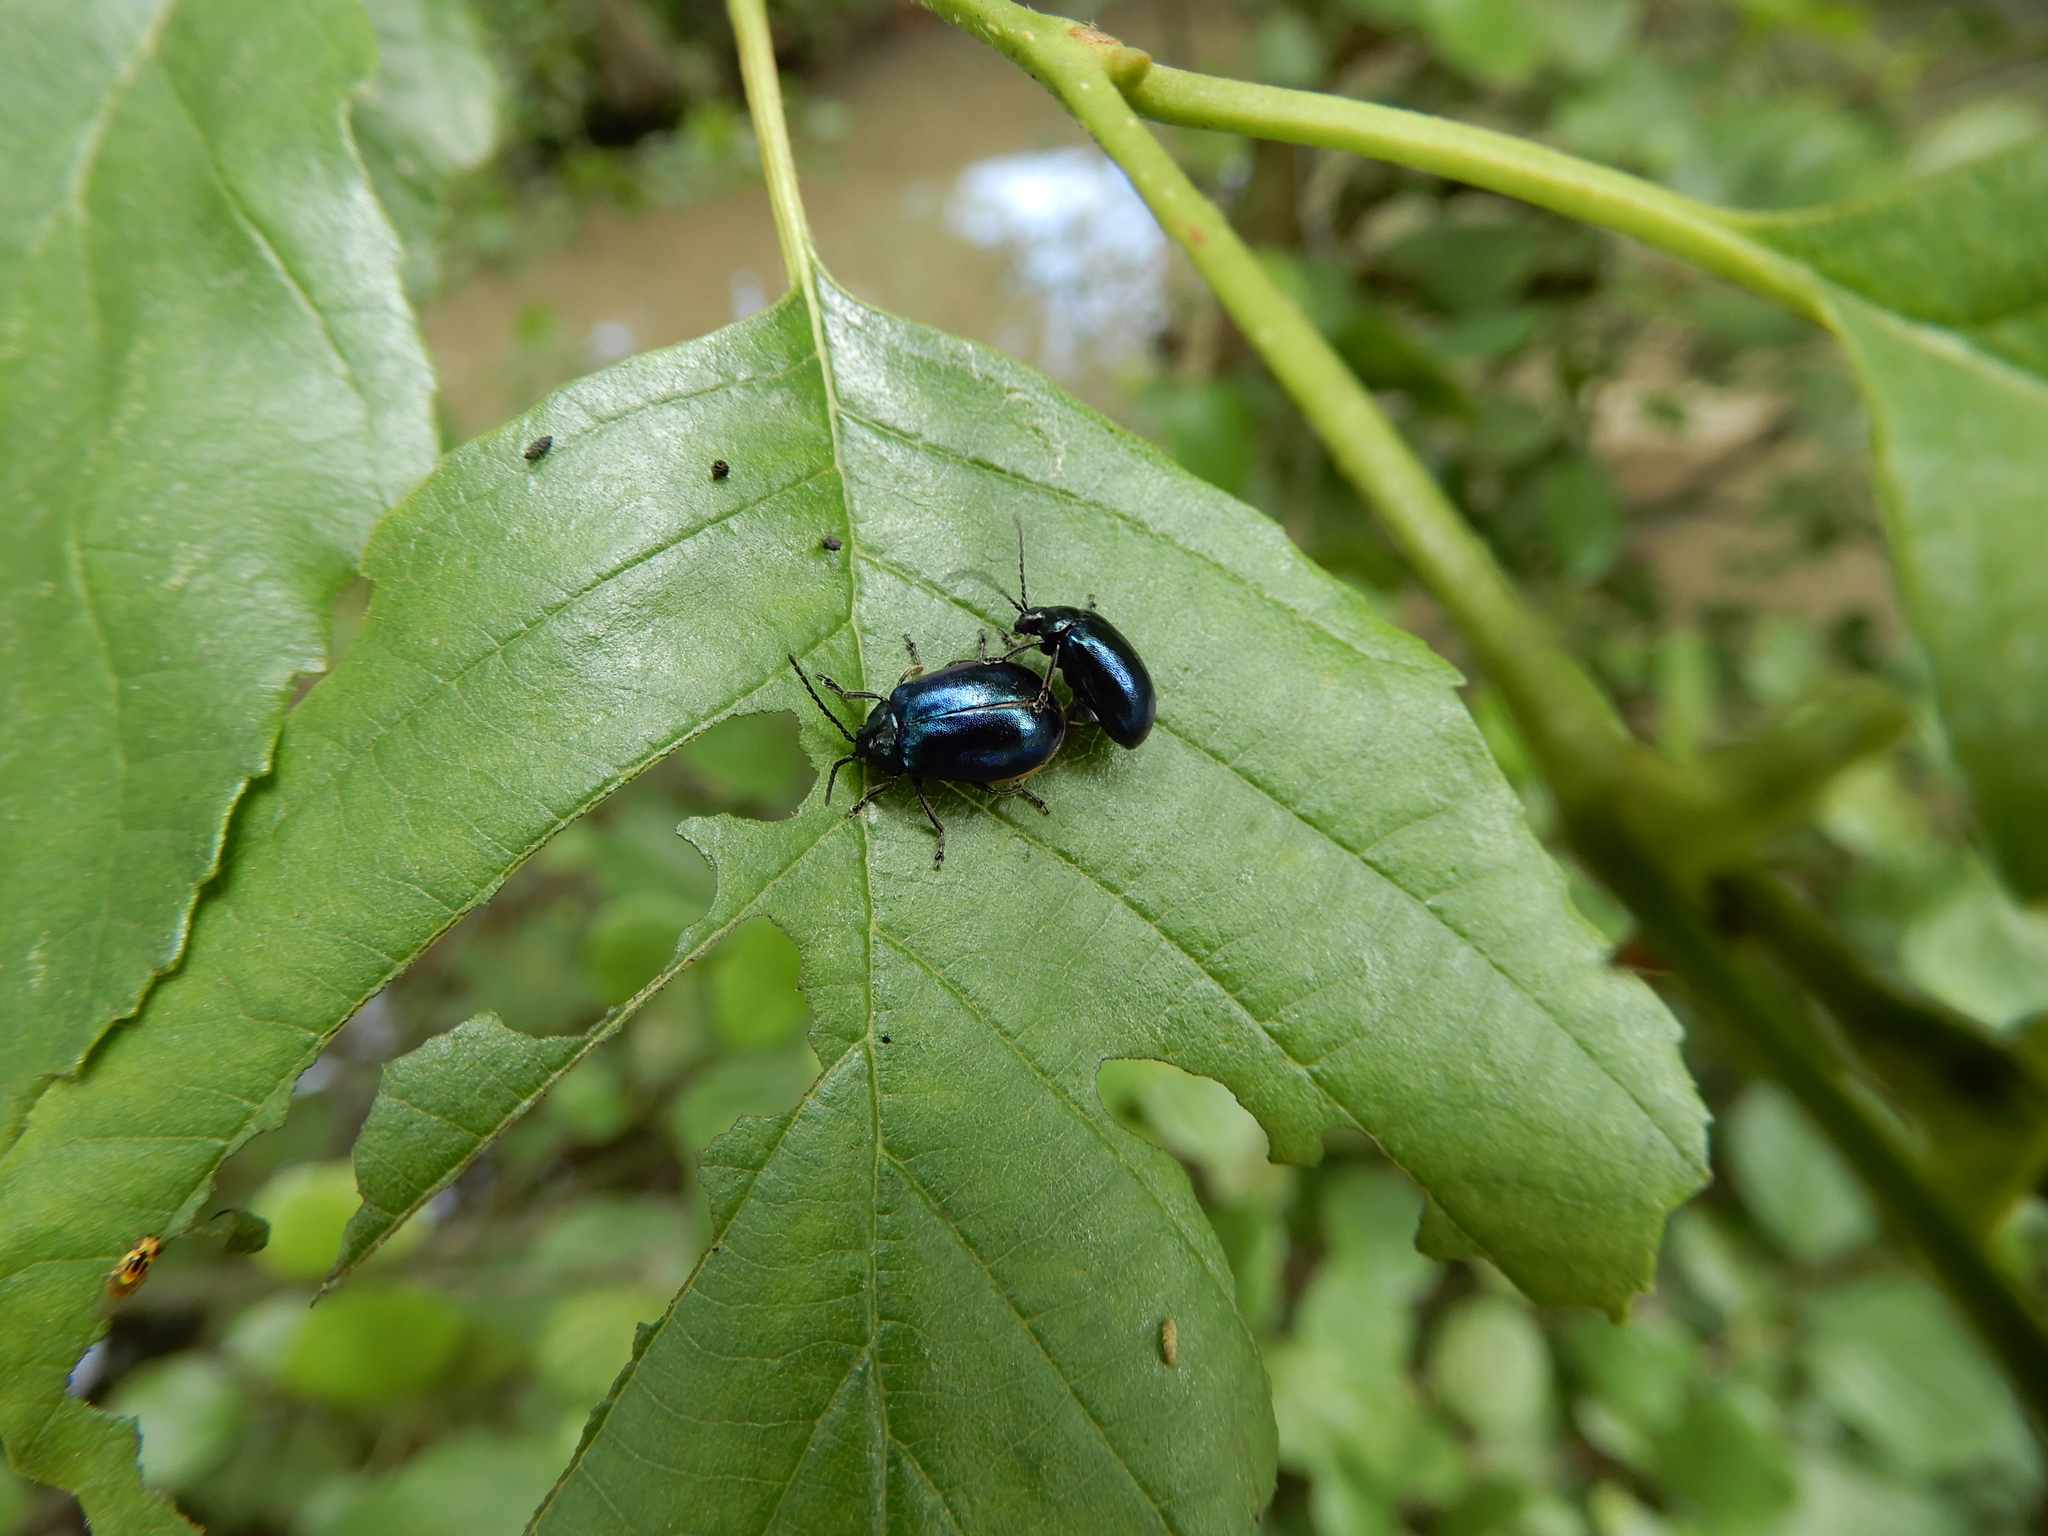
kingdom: Animalia
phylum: Arthropoda
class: Insecta
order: Coleoptera
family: Chrysomelidae
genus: Agelastica
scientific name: Agelastica alni
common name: Alder leaf beetle
